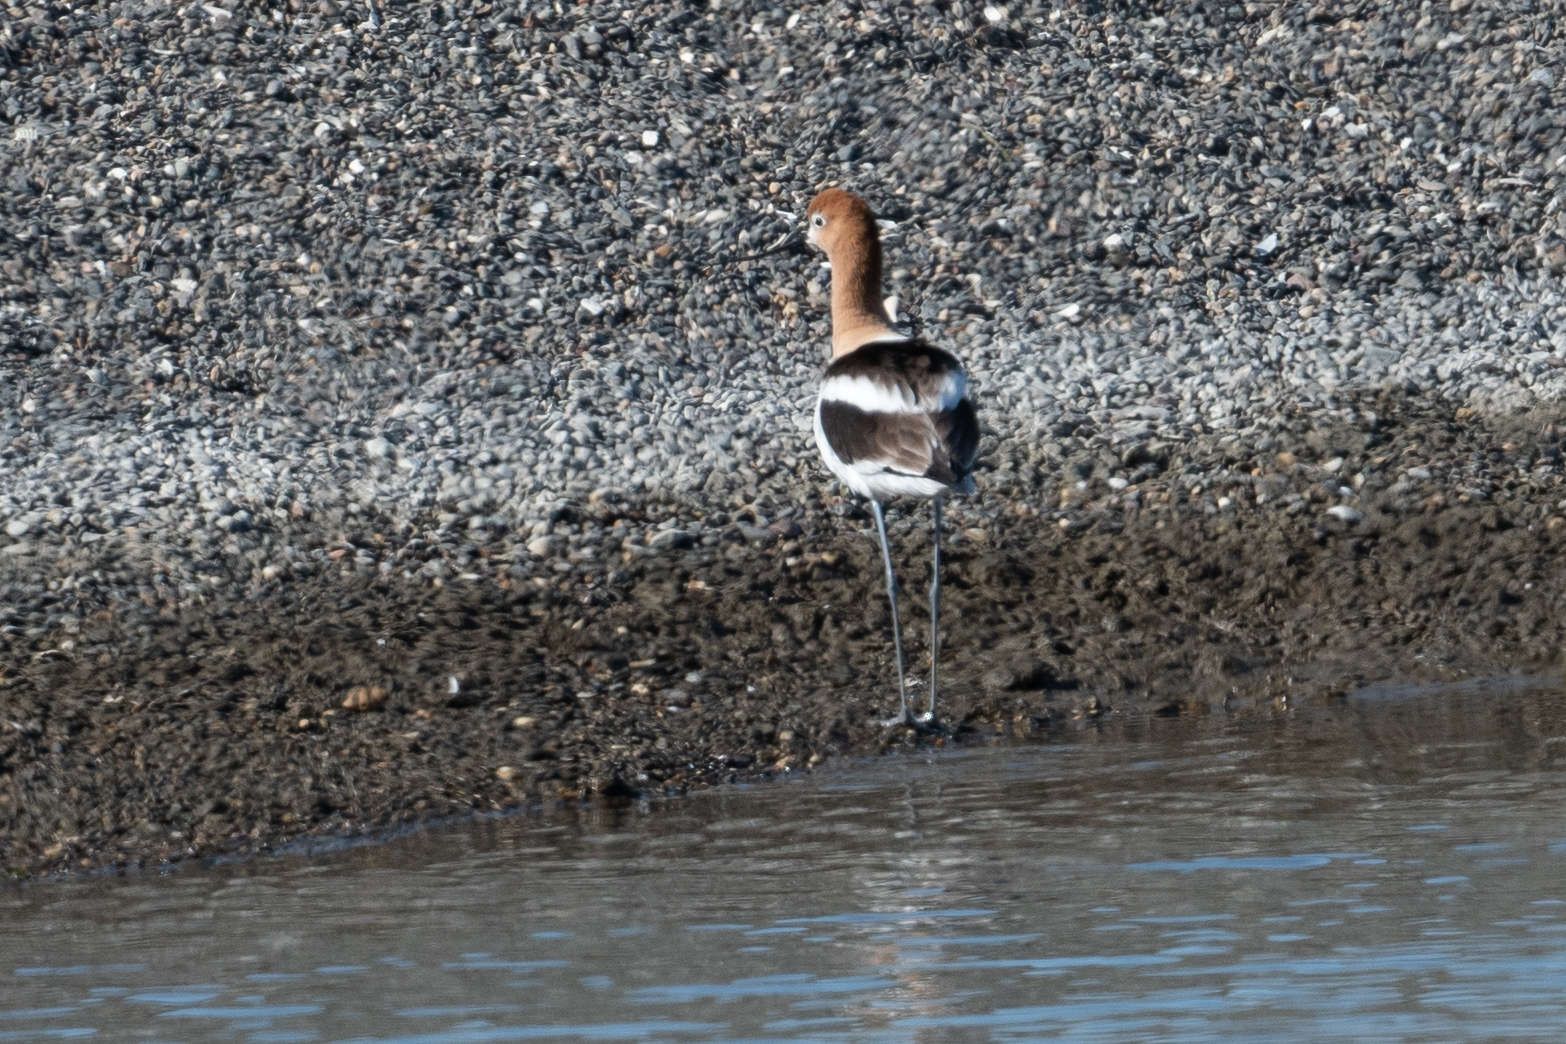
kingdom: Animalia
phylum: Chordata
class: Aves
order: Charadriiformes
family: Recurvirostridae
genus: Recurvirostra
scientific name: Recurvirostra americana
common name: American avocet
